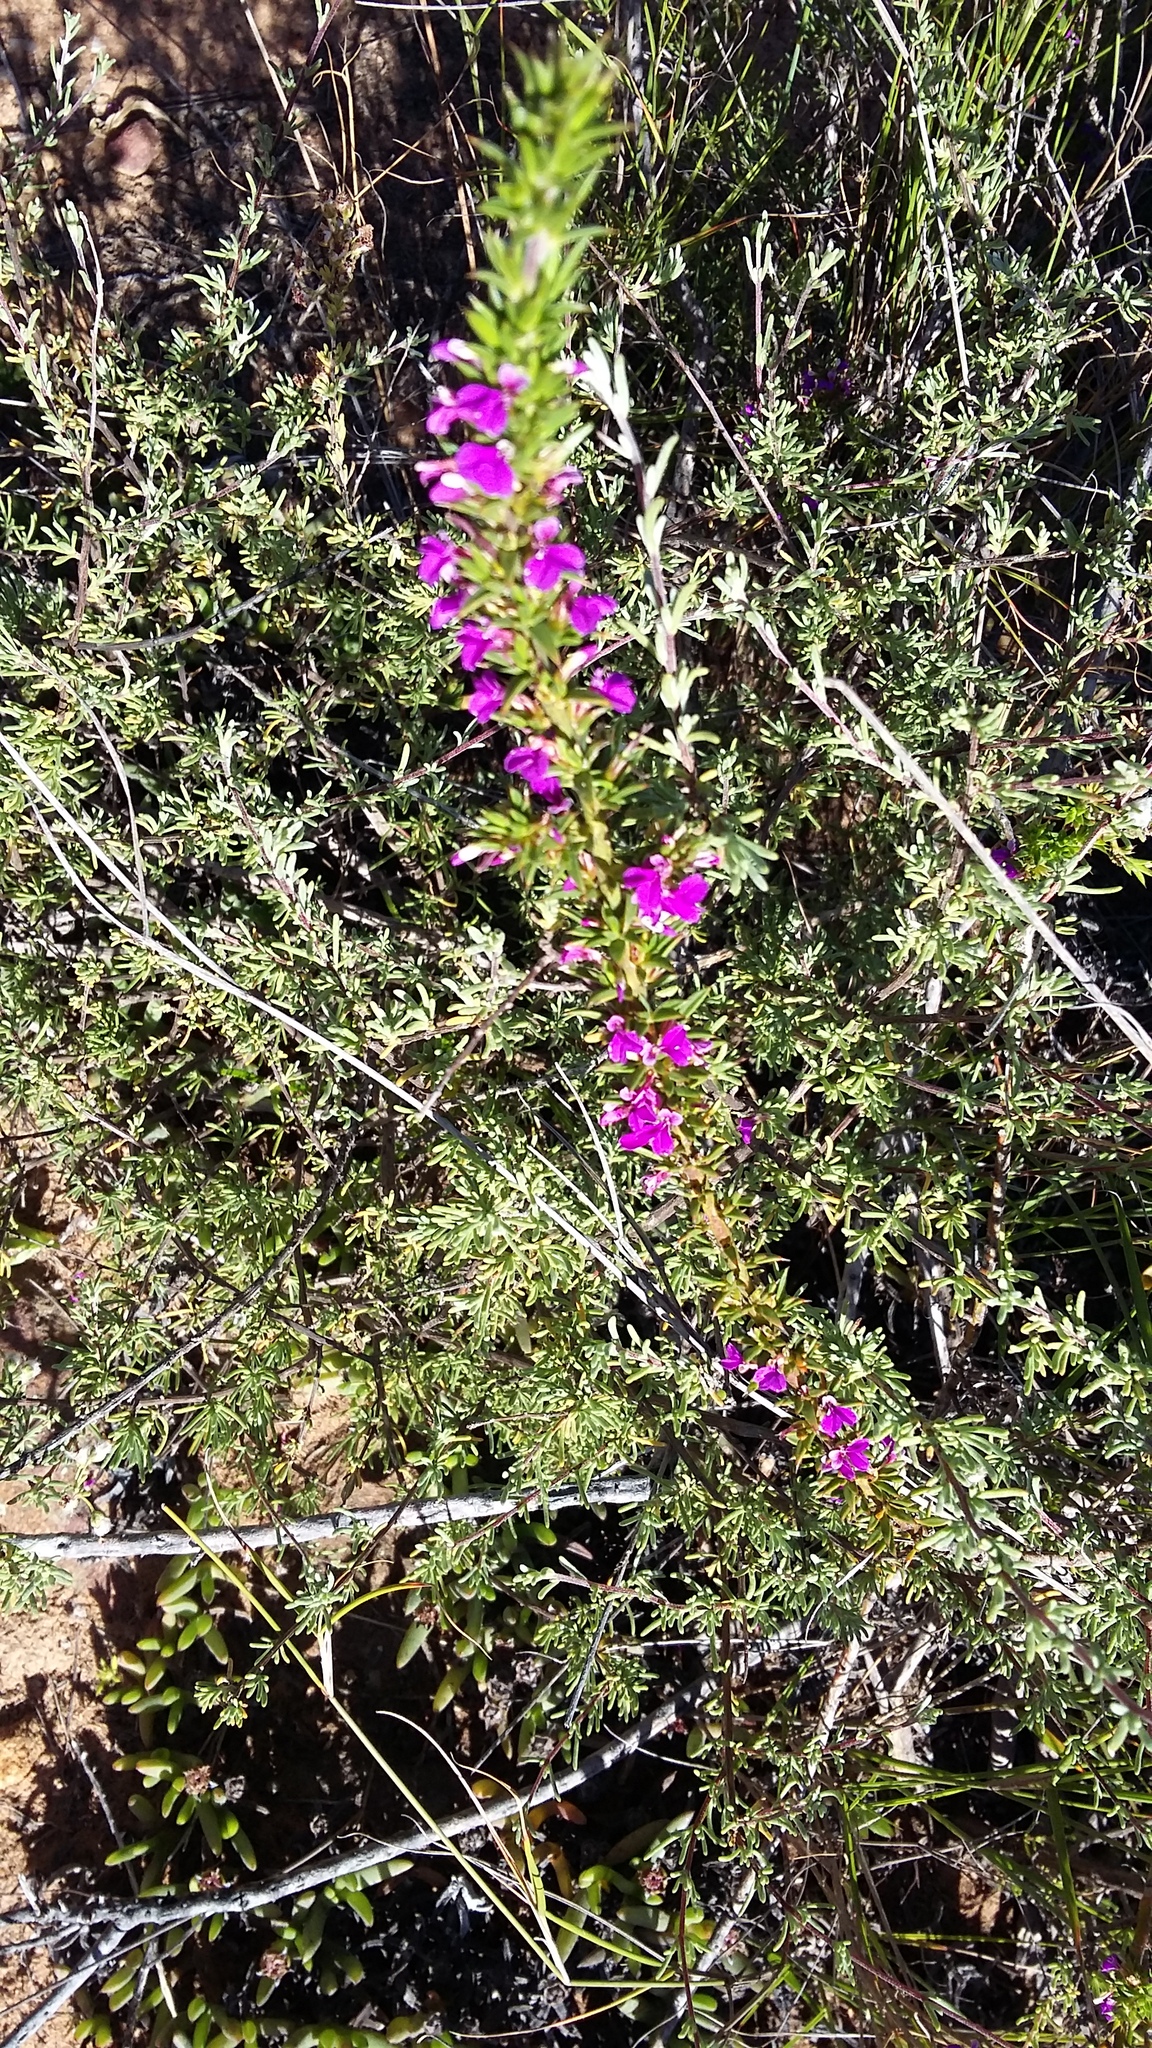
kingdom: Plantae
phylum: Tracheophyta
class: Magnoliopsida
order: Fabales
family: Polygalaceae
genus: Muraltia
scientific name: Muraltia heisteria
